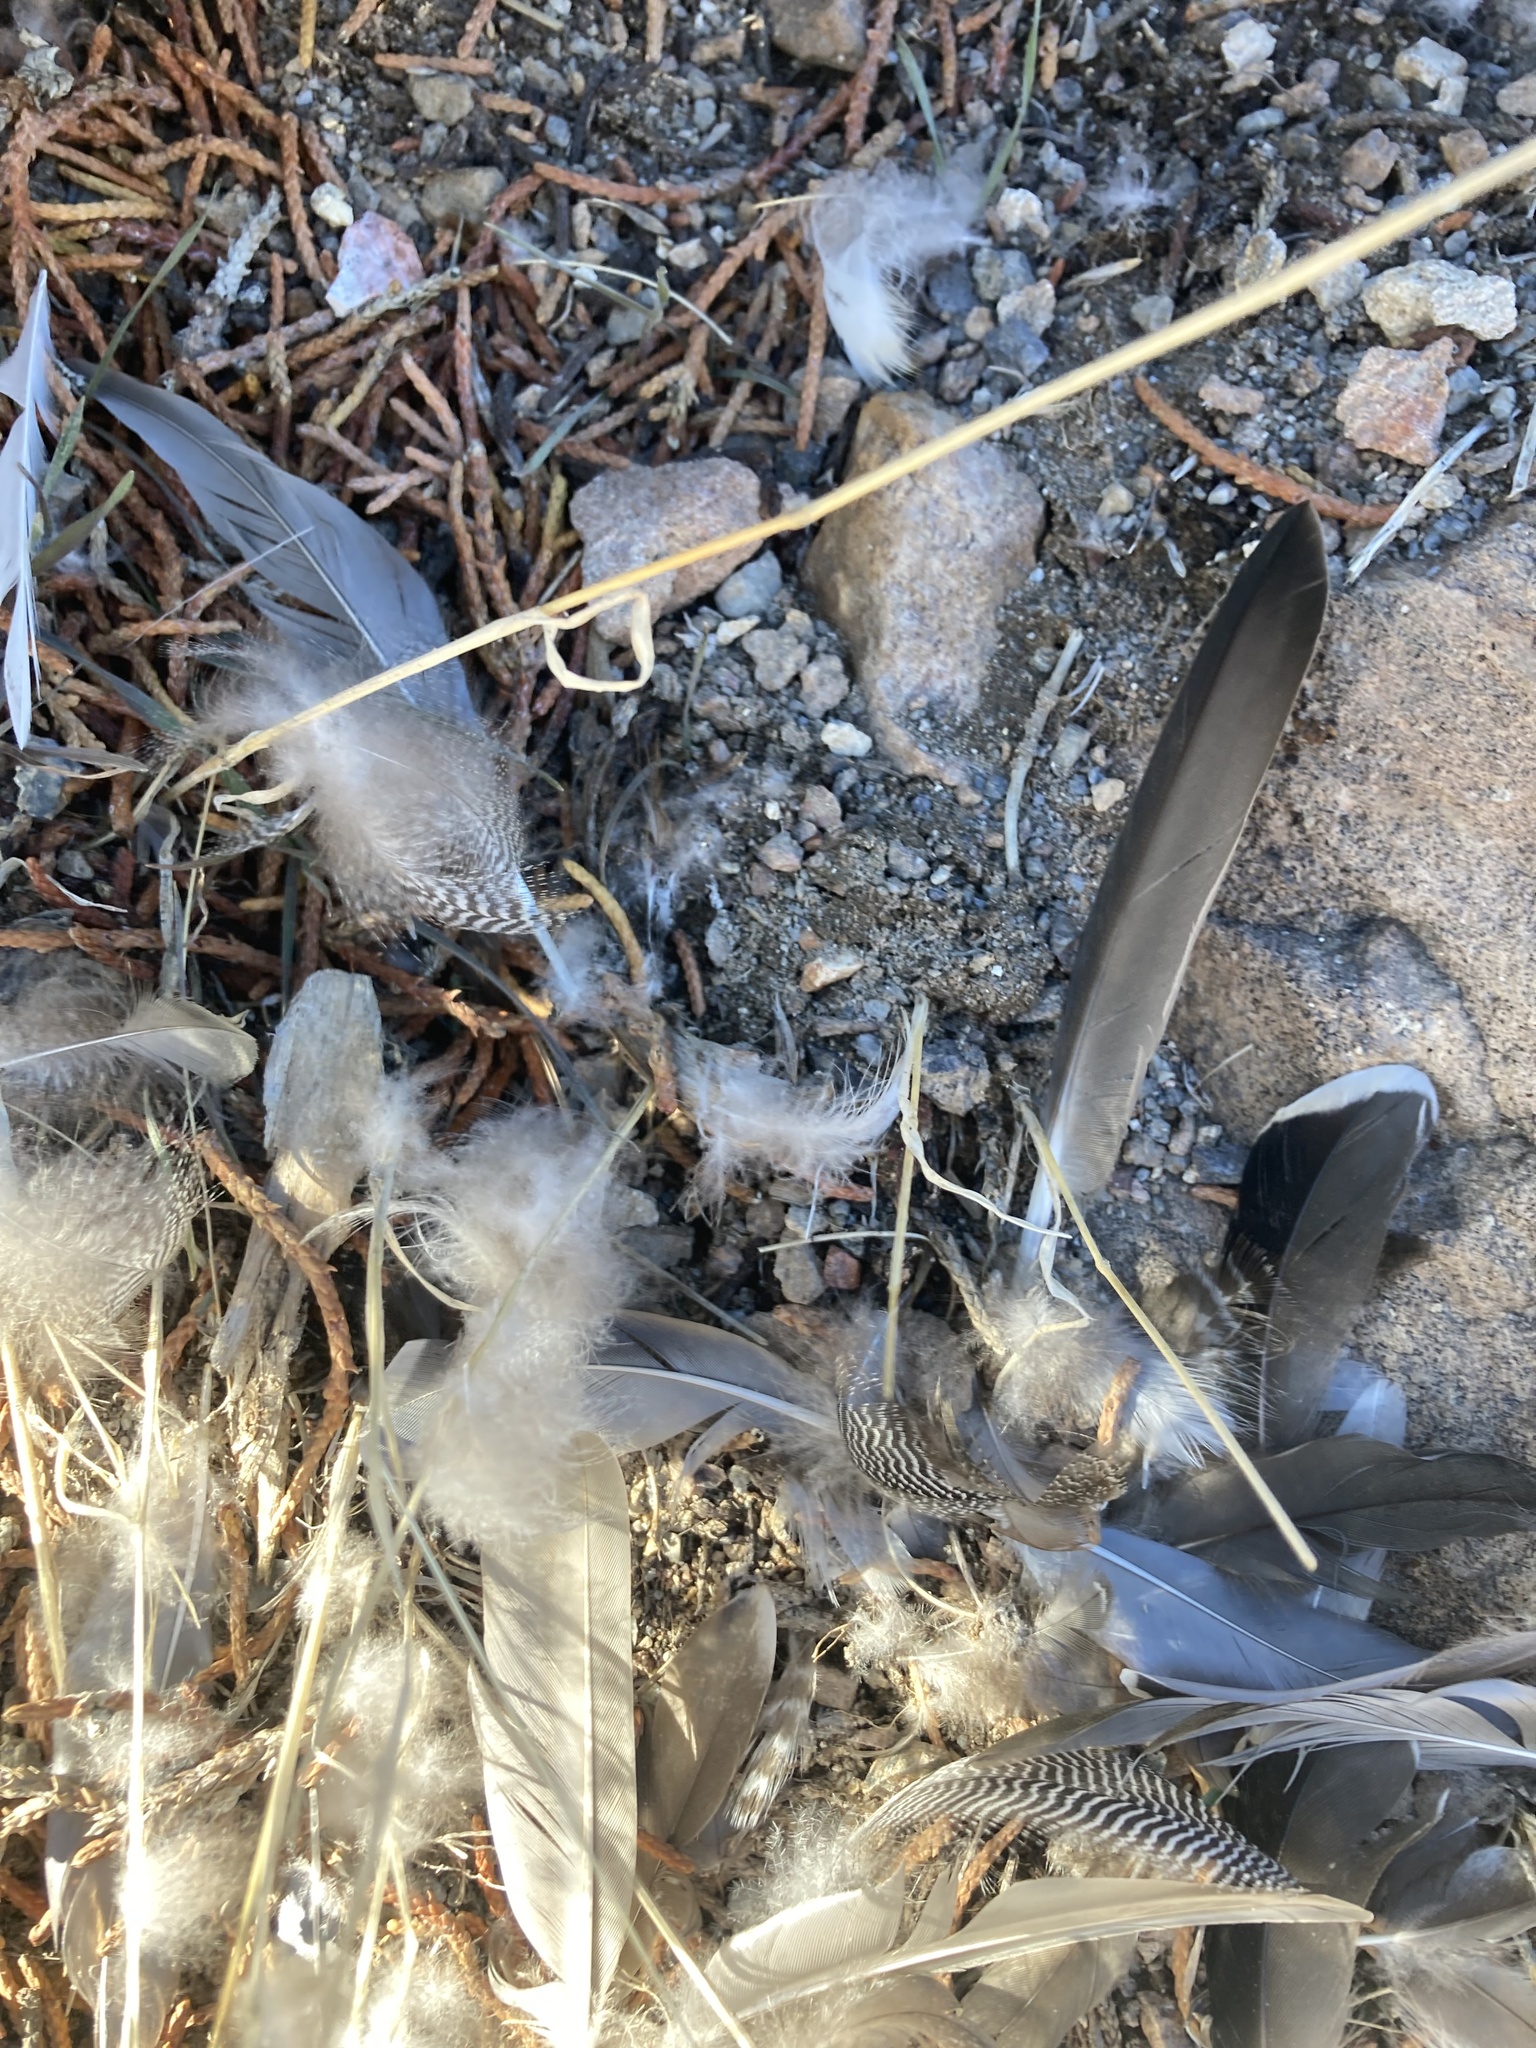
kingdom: Animalia
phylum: Chordata
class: Aves
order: Anseriformes
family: Anatidae
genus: Anas
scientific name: Anas crecca
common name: Eurasian teal
